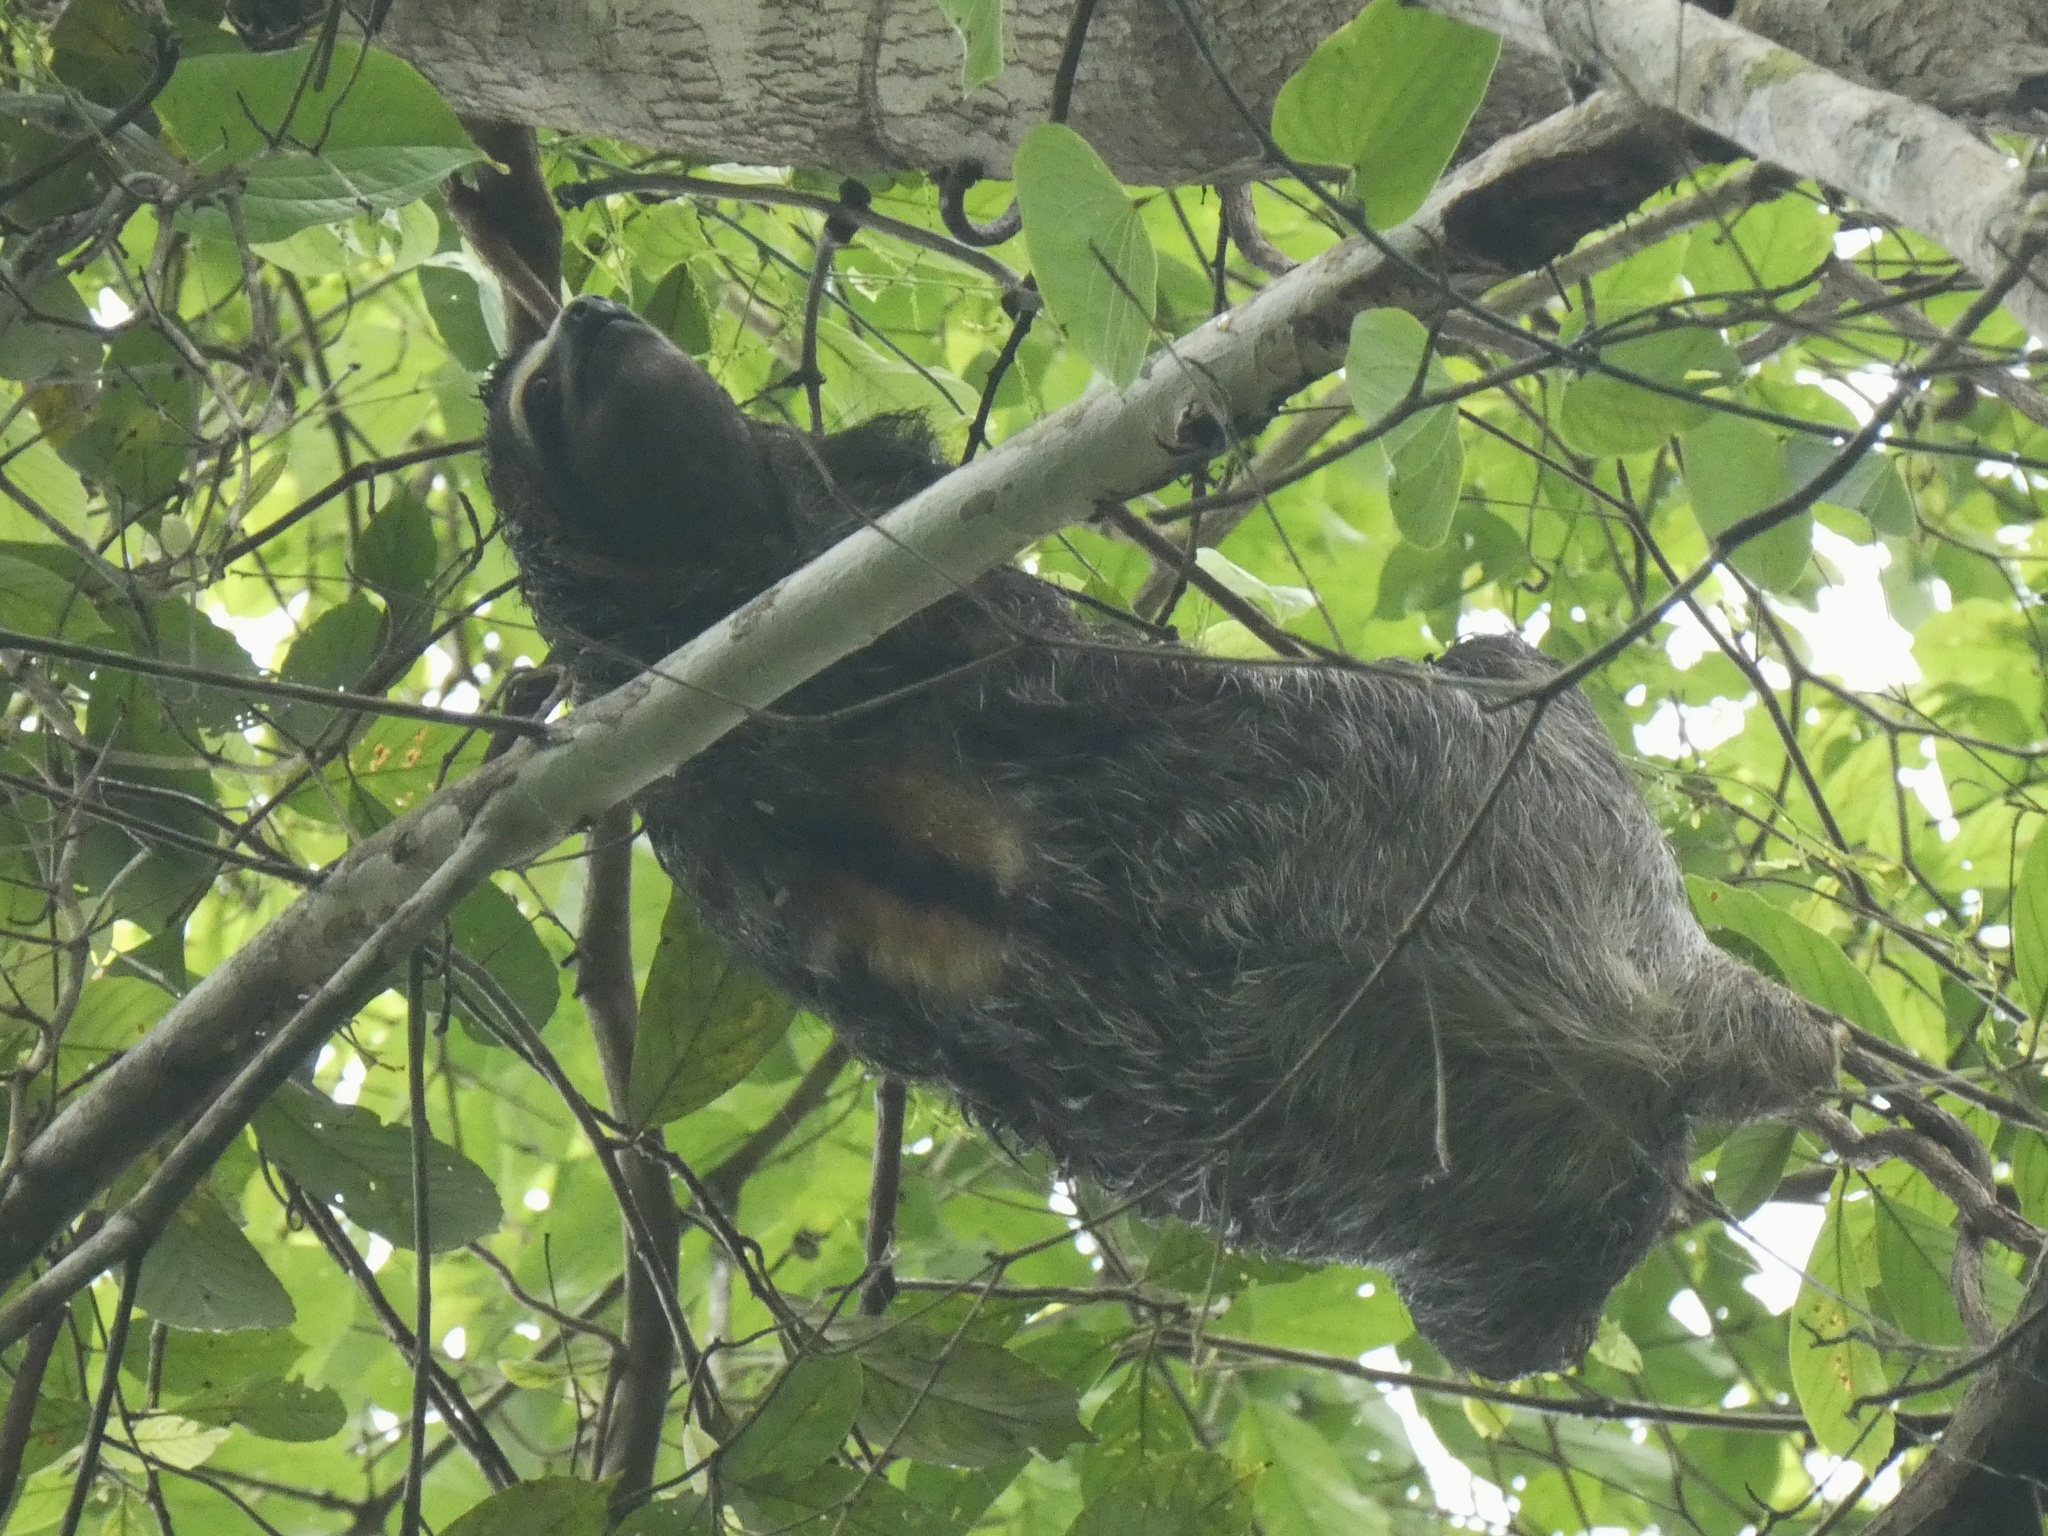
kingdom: Animalia
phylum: Chordata
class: Mammalia
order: Pilosa
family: Bradypodidae
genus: Bradypus
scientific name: Bradypus variegatus
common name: Brown-throated three-toed sloth
